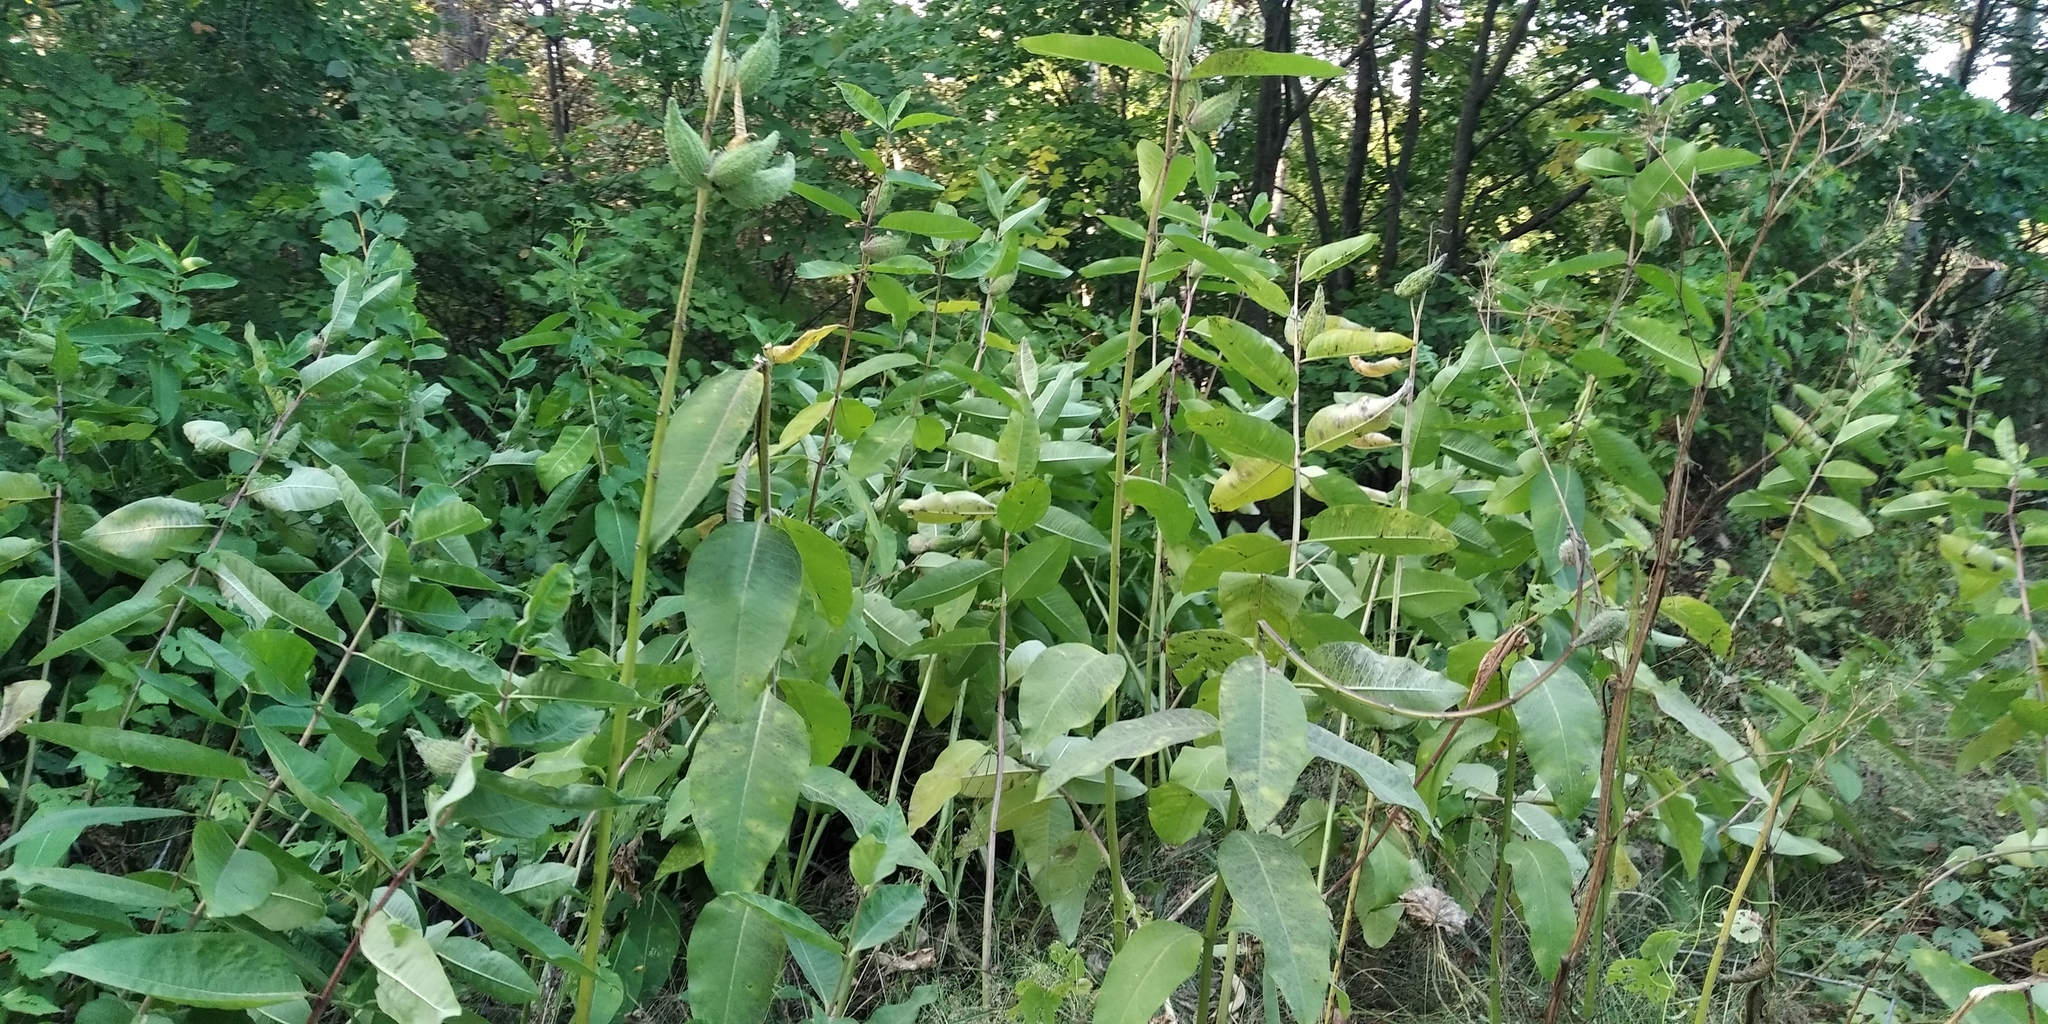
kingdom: Plantae
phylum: Tracheophyta
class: Magnoliopsida
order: Gentianales
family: Apocynaceae
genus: Asclepias
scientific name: Asclepias syriaca
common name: Common milkweed
